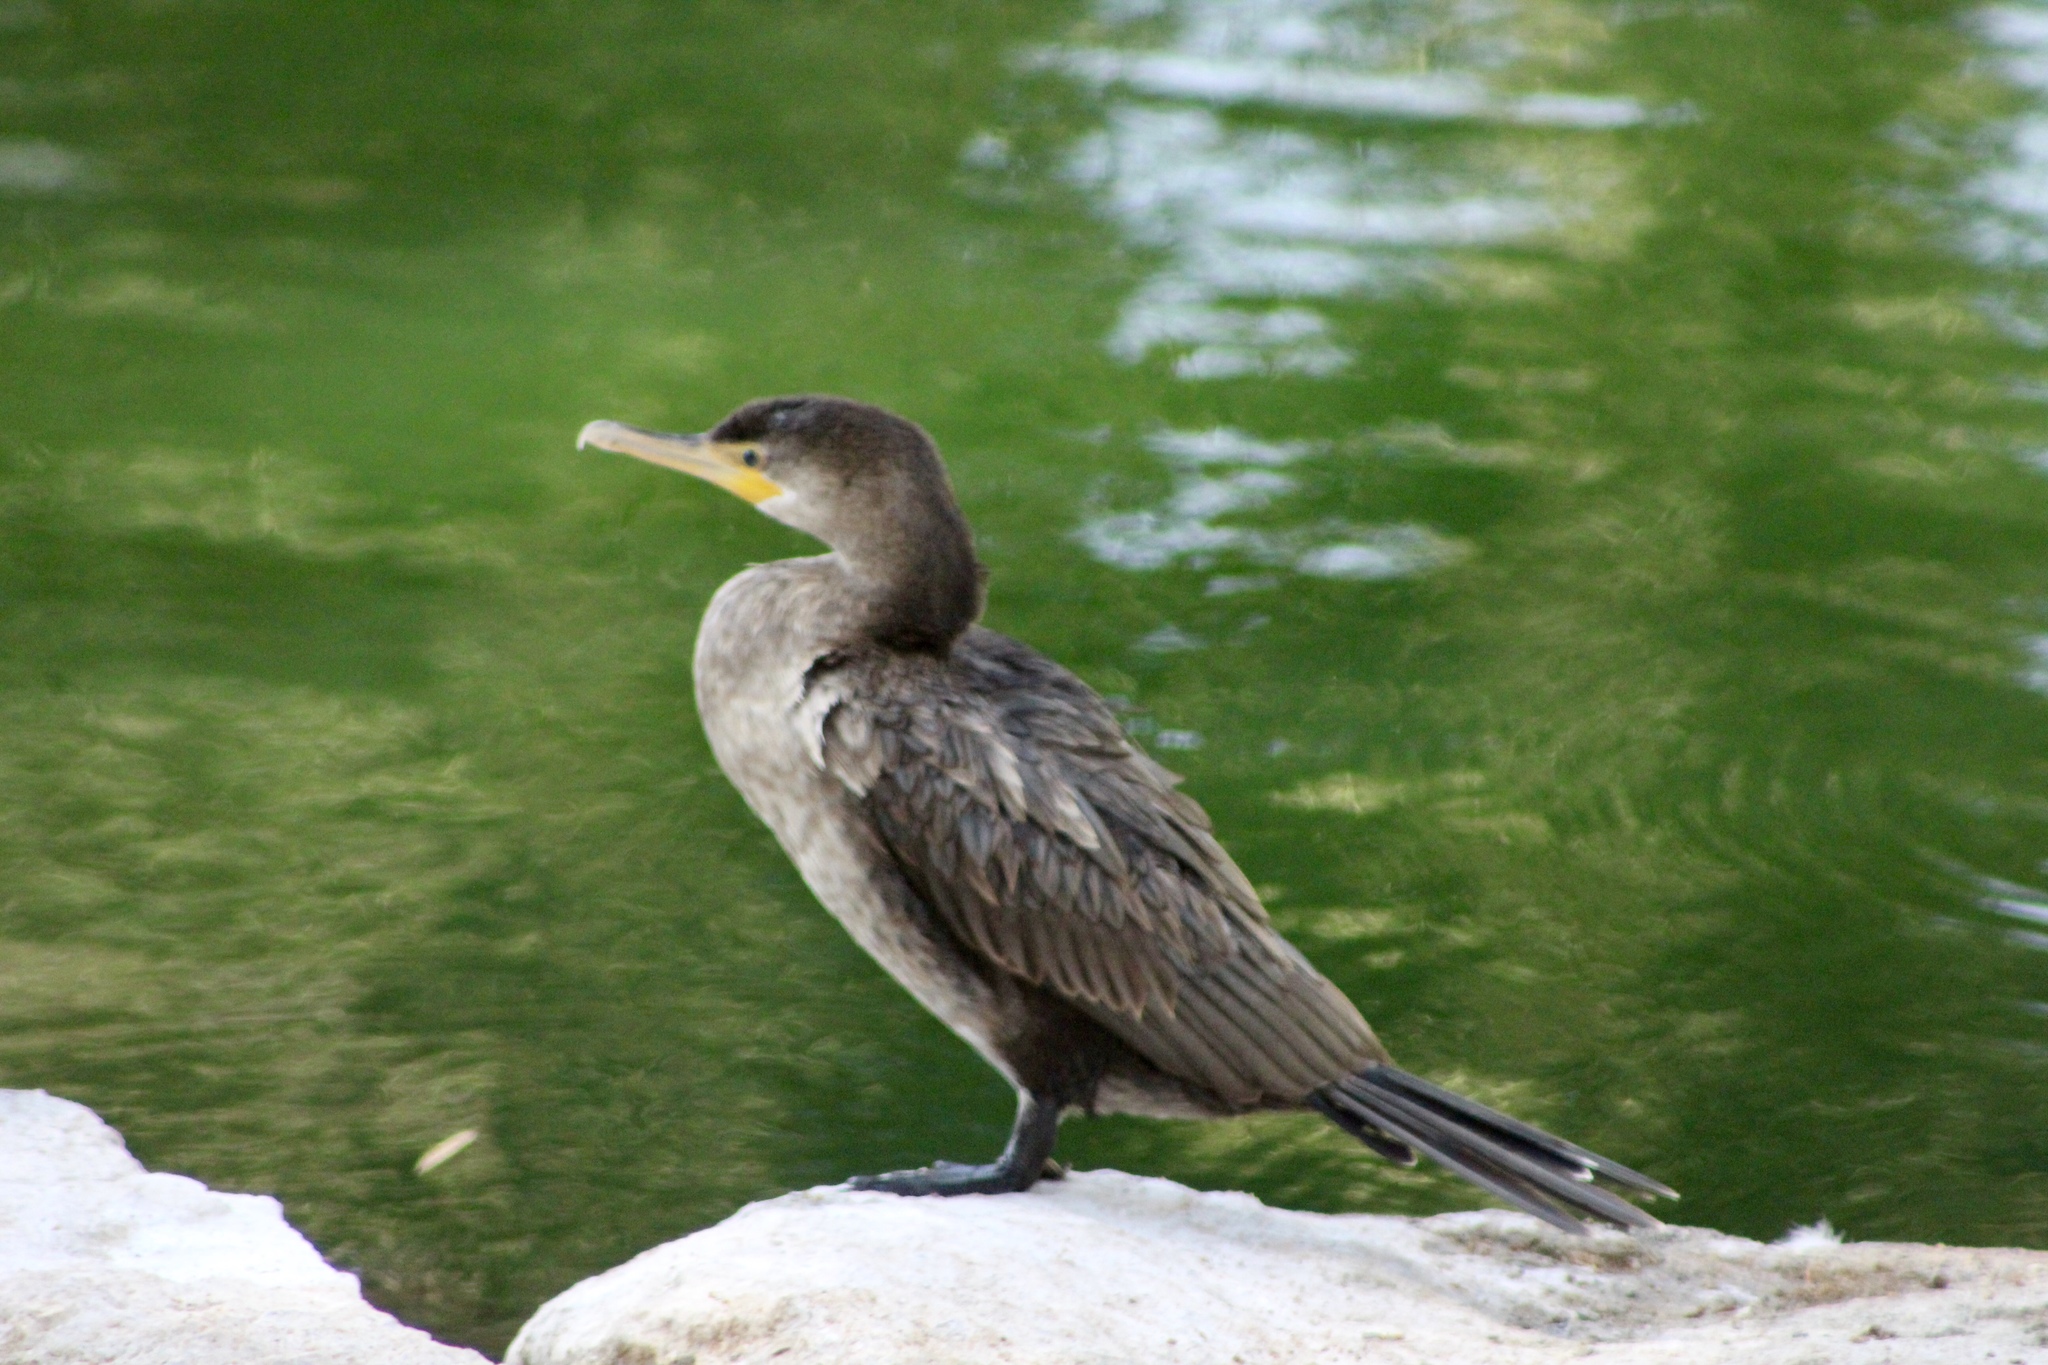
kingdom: Animalia
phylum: Chordata
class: Aves
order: Suliformes
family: Phalacrocoracidae
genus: Phalacrocorax
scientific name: Phalacrocorax auritus
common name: Double-crested cormorant
